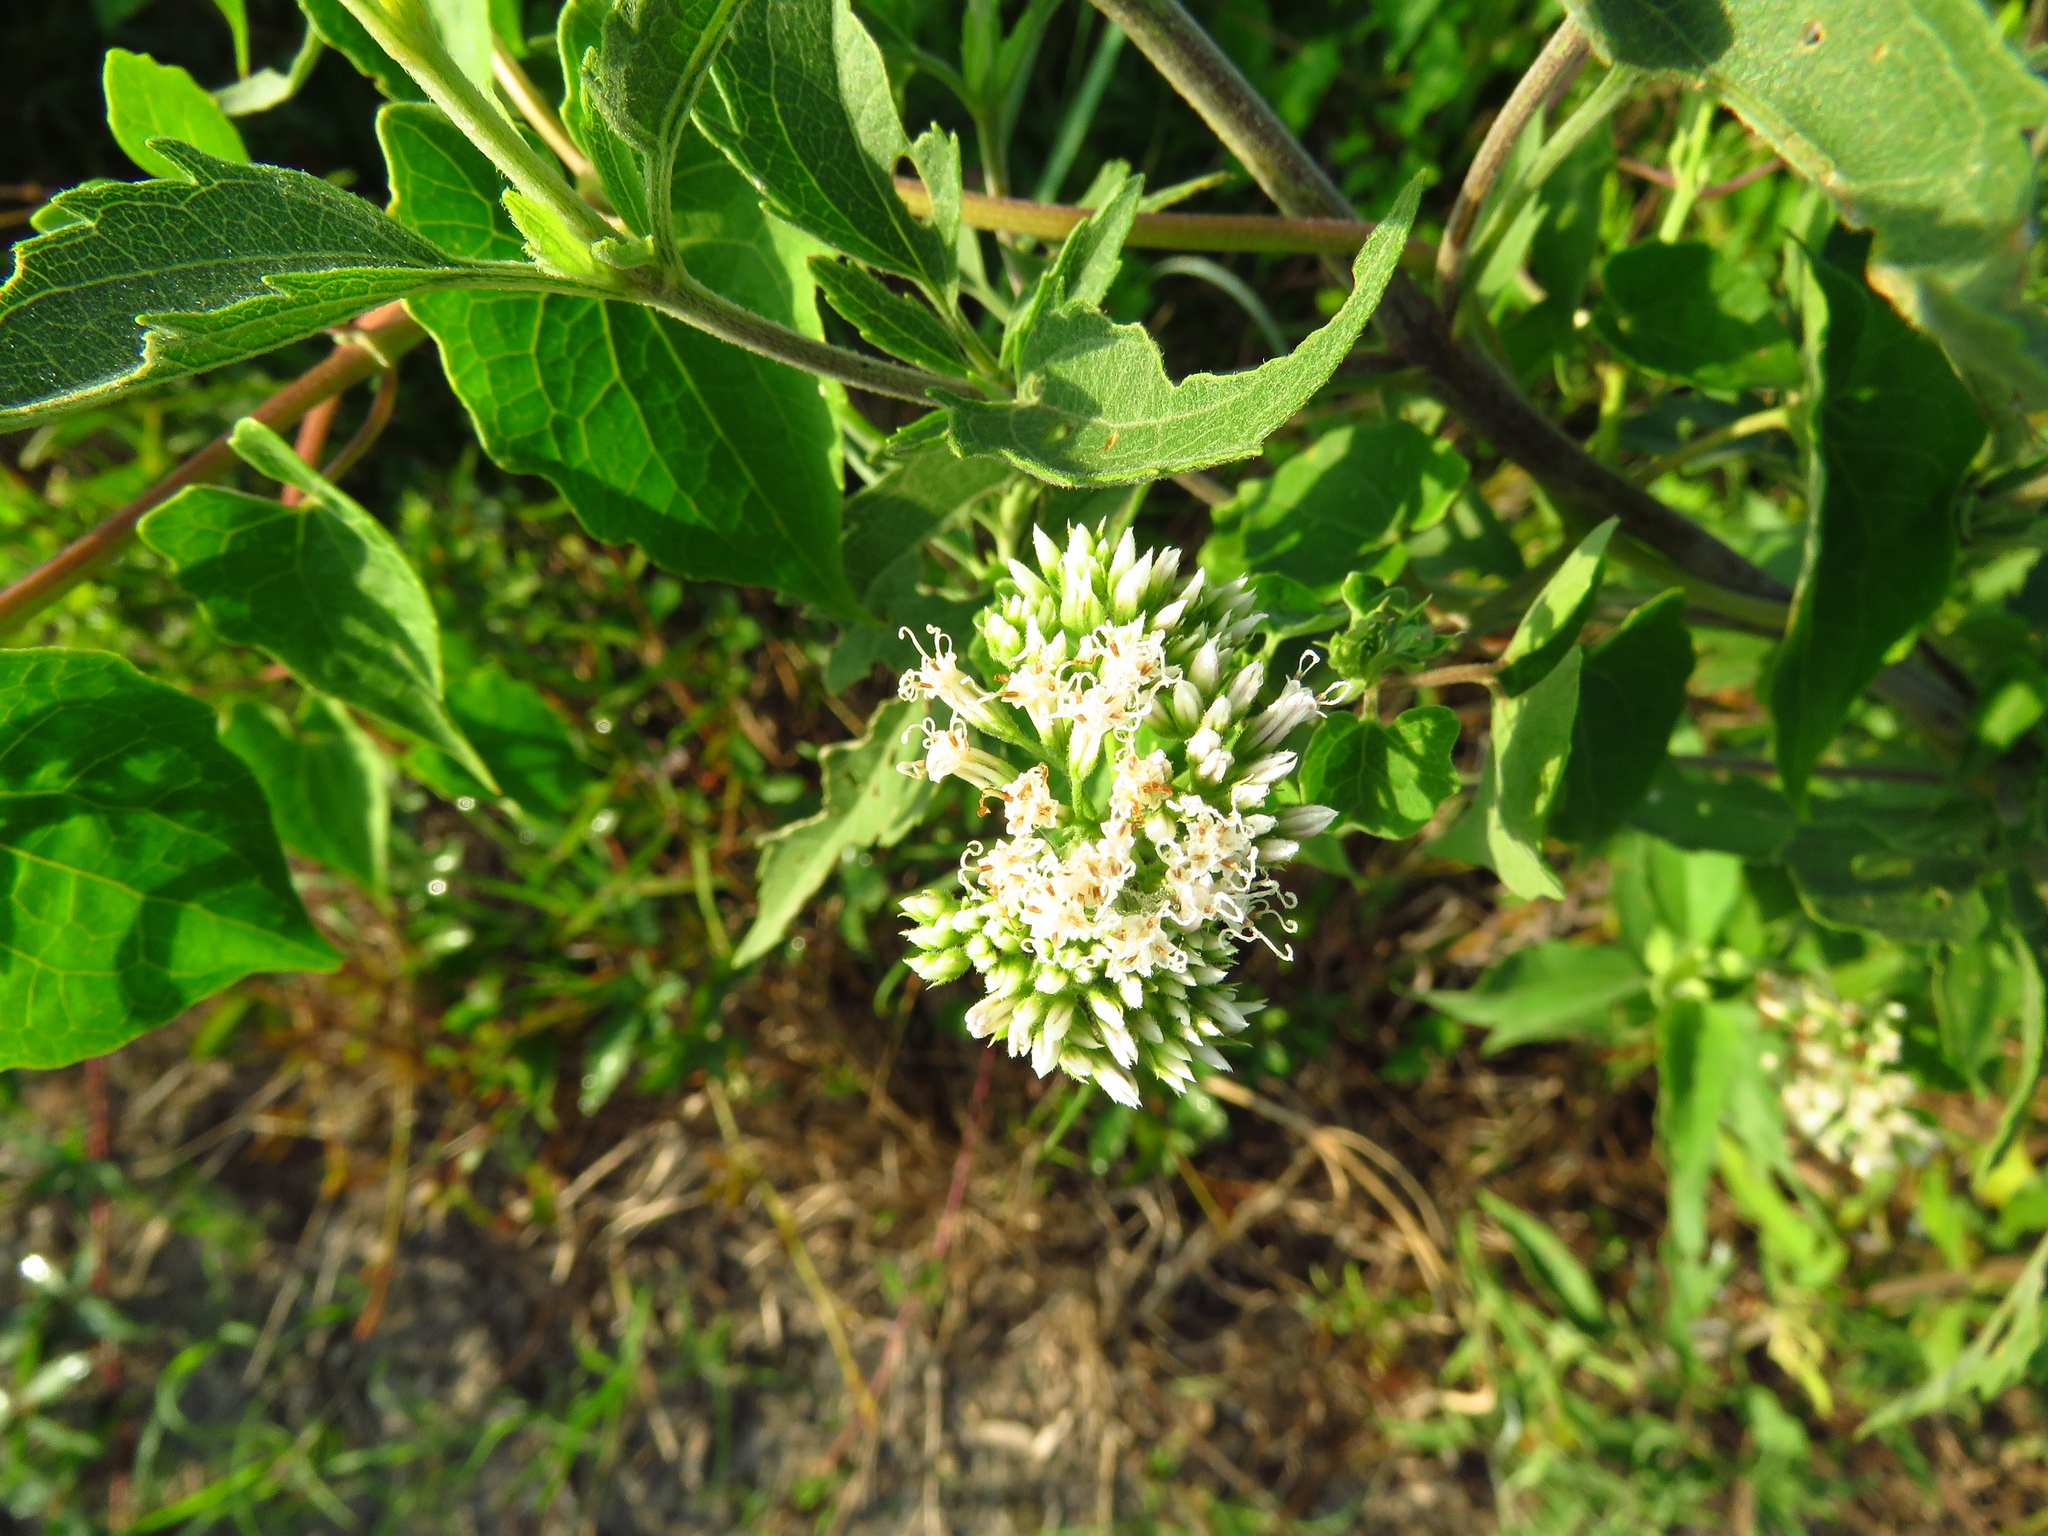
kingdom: Plantae
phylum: Tracheophyta
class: Magnoliopsida
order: Asterales
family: Asteraceae
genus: Mikania
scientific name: Mikania scandens
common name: Climbing hempvine
